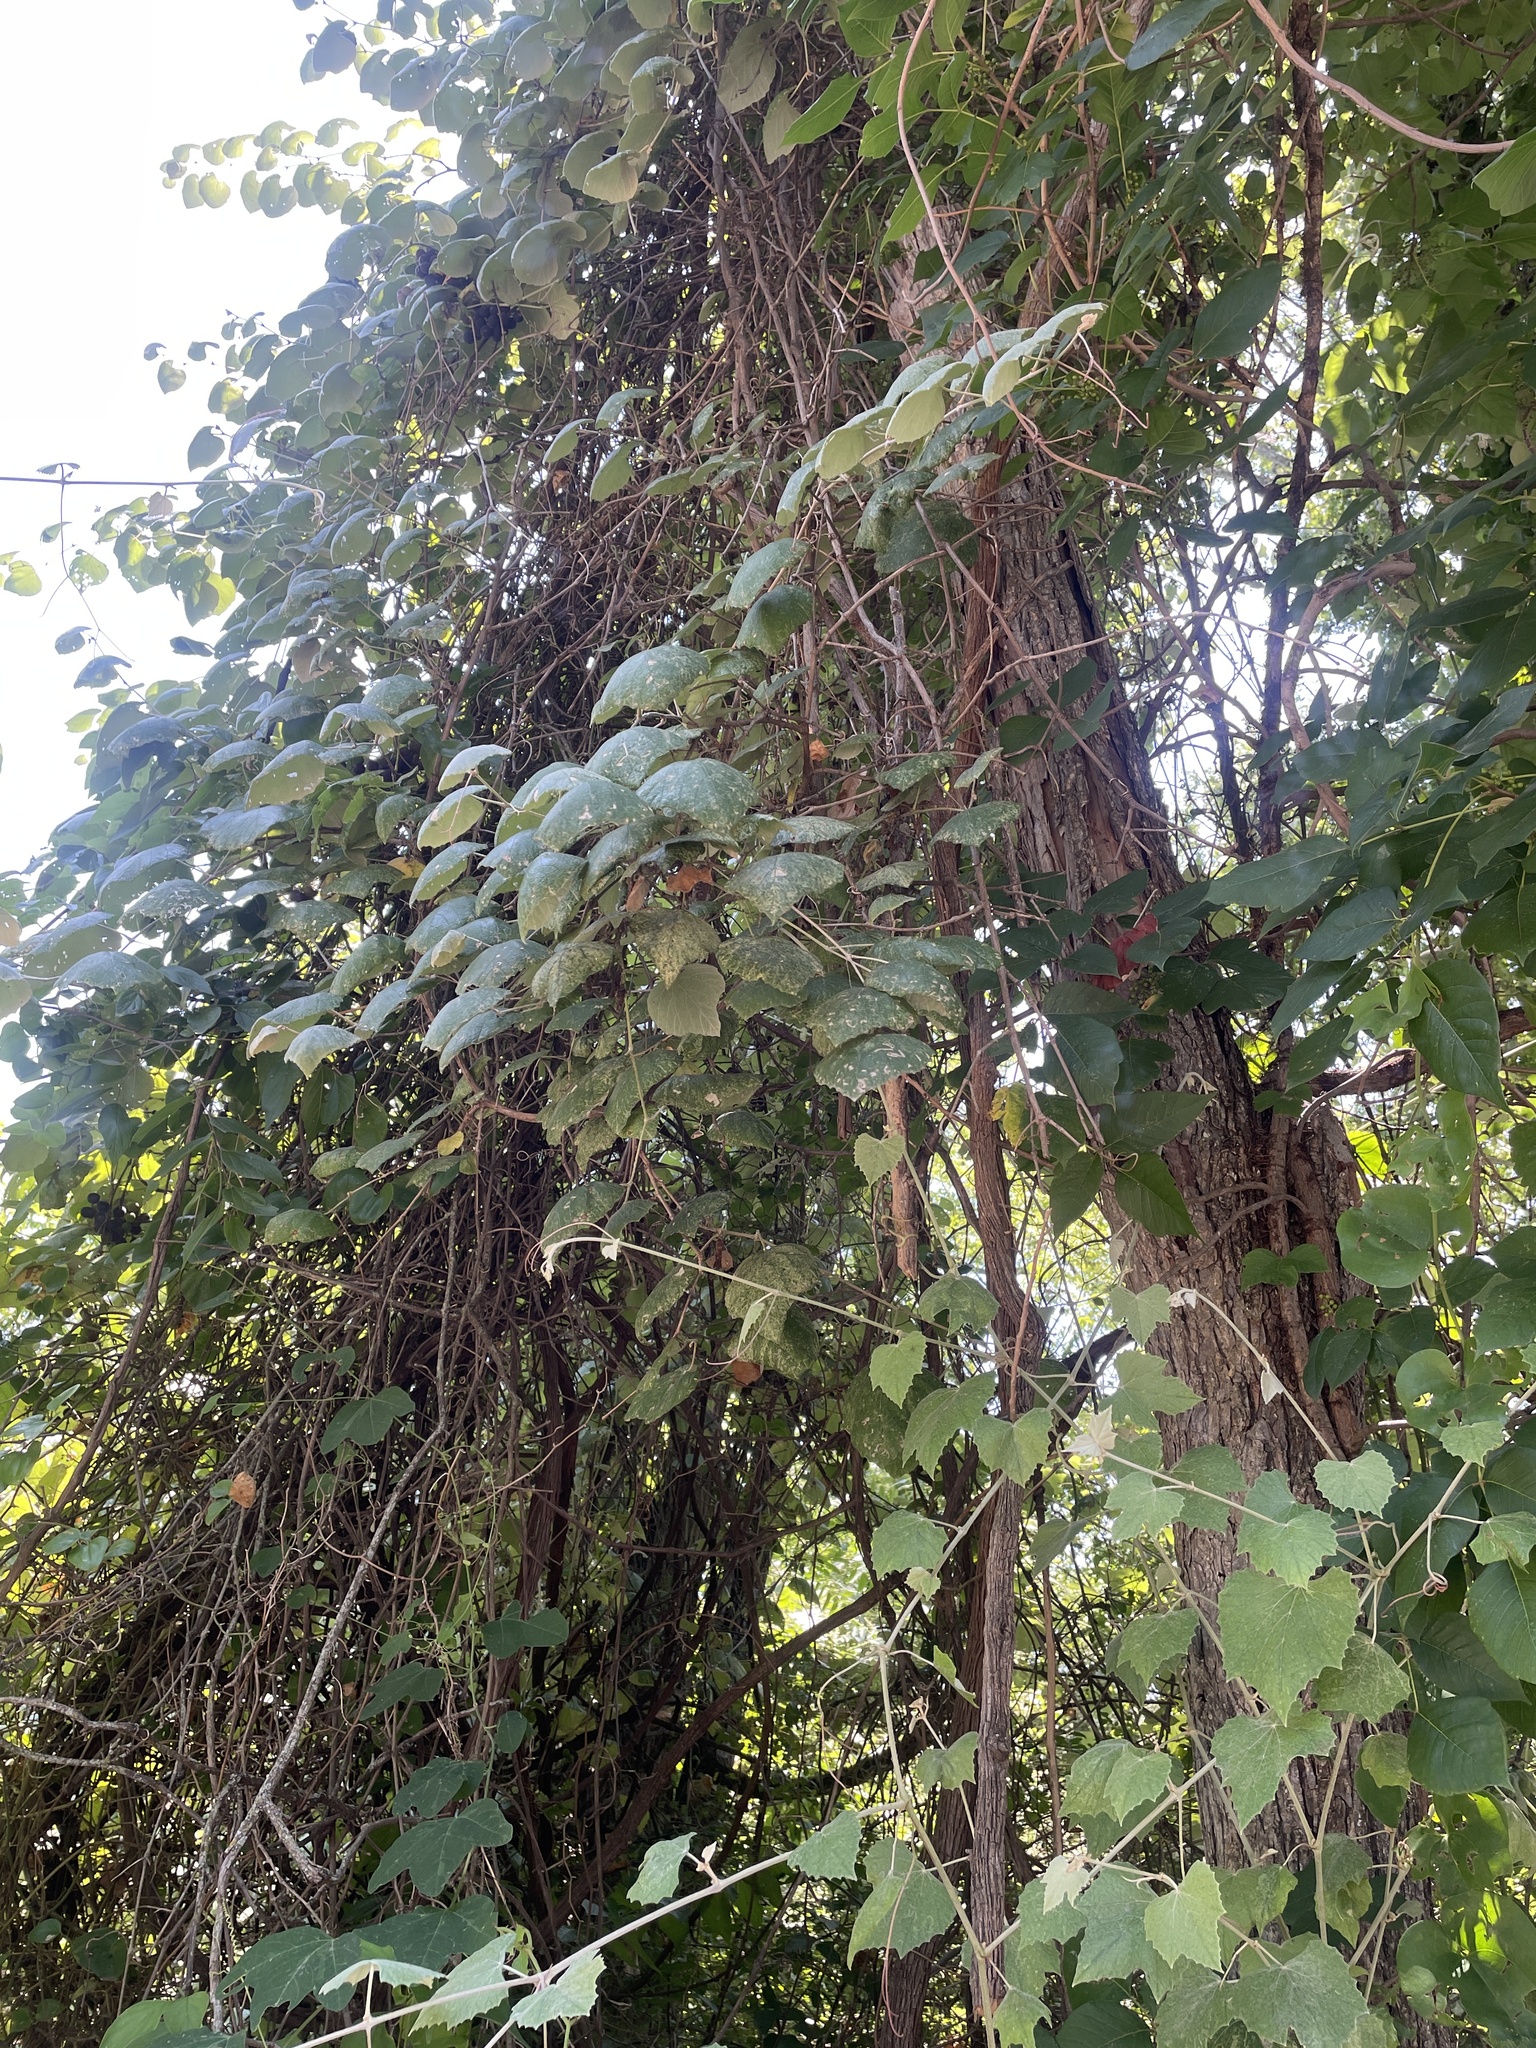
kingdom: Plantae
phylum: Tracheophyta
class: Magnoliopsida
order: Vitales
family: Vitaceae
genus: Vitis
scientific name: Vitis mustangensis
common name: Mustang grape
